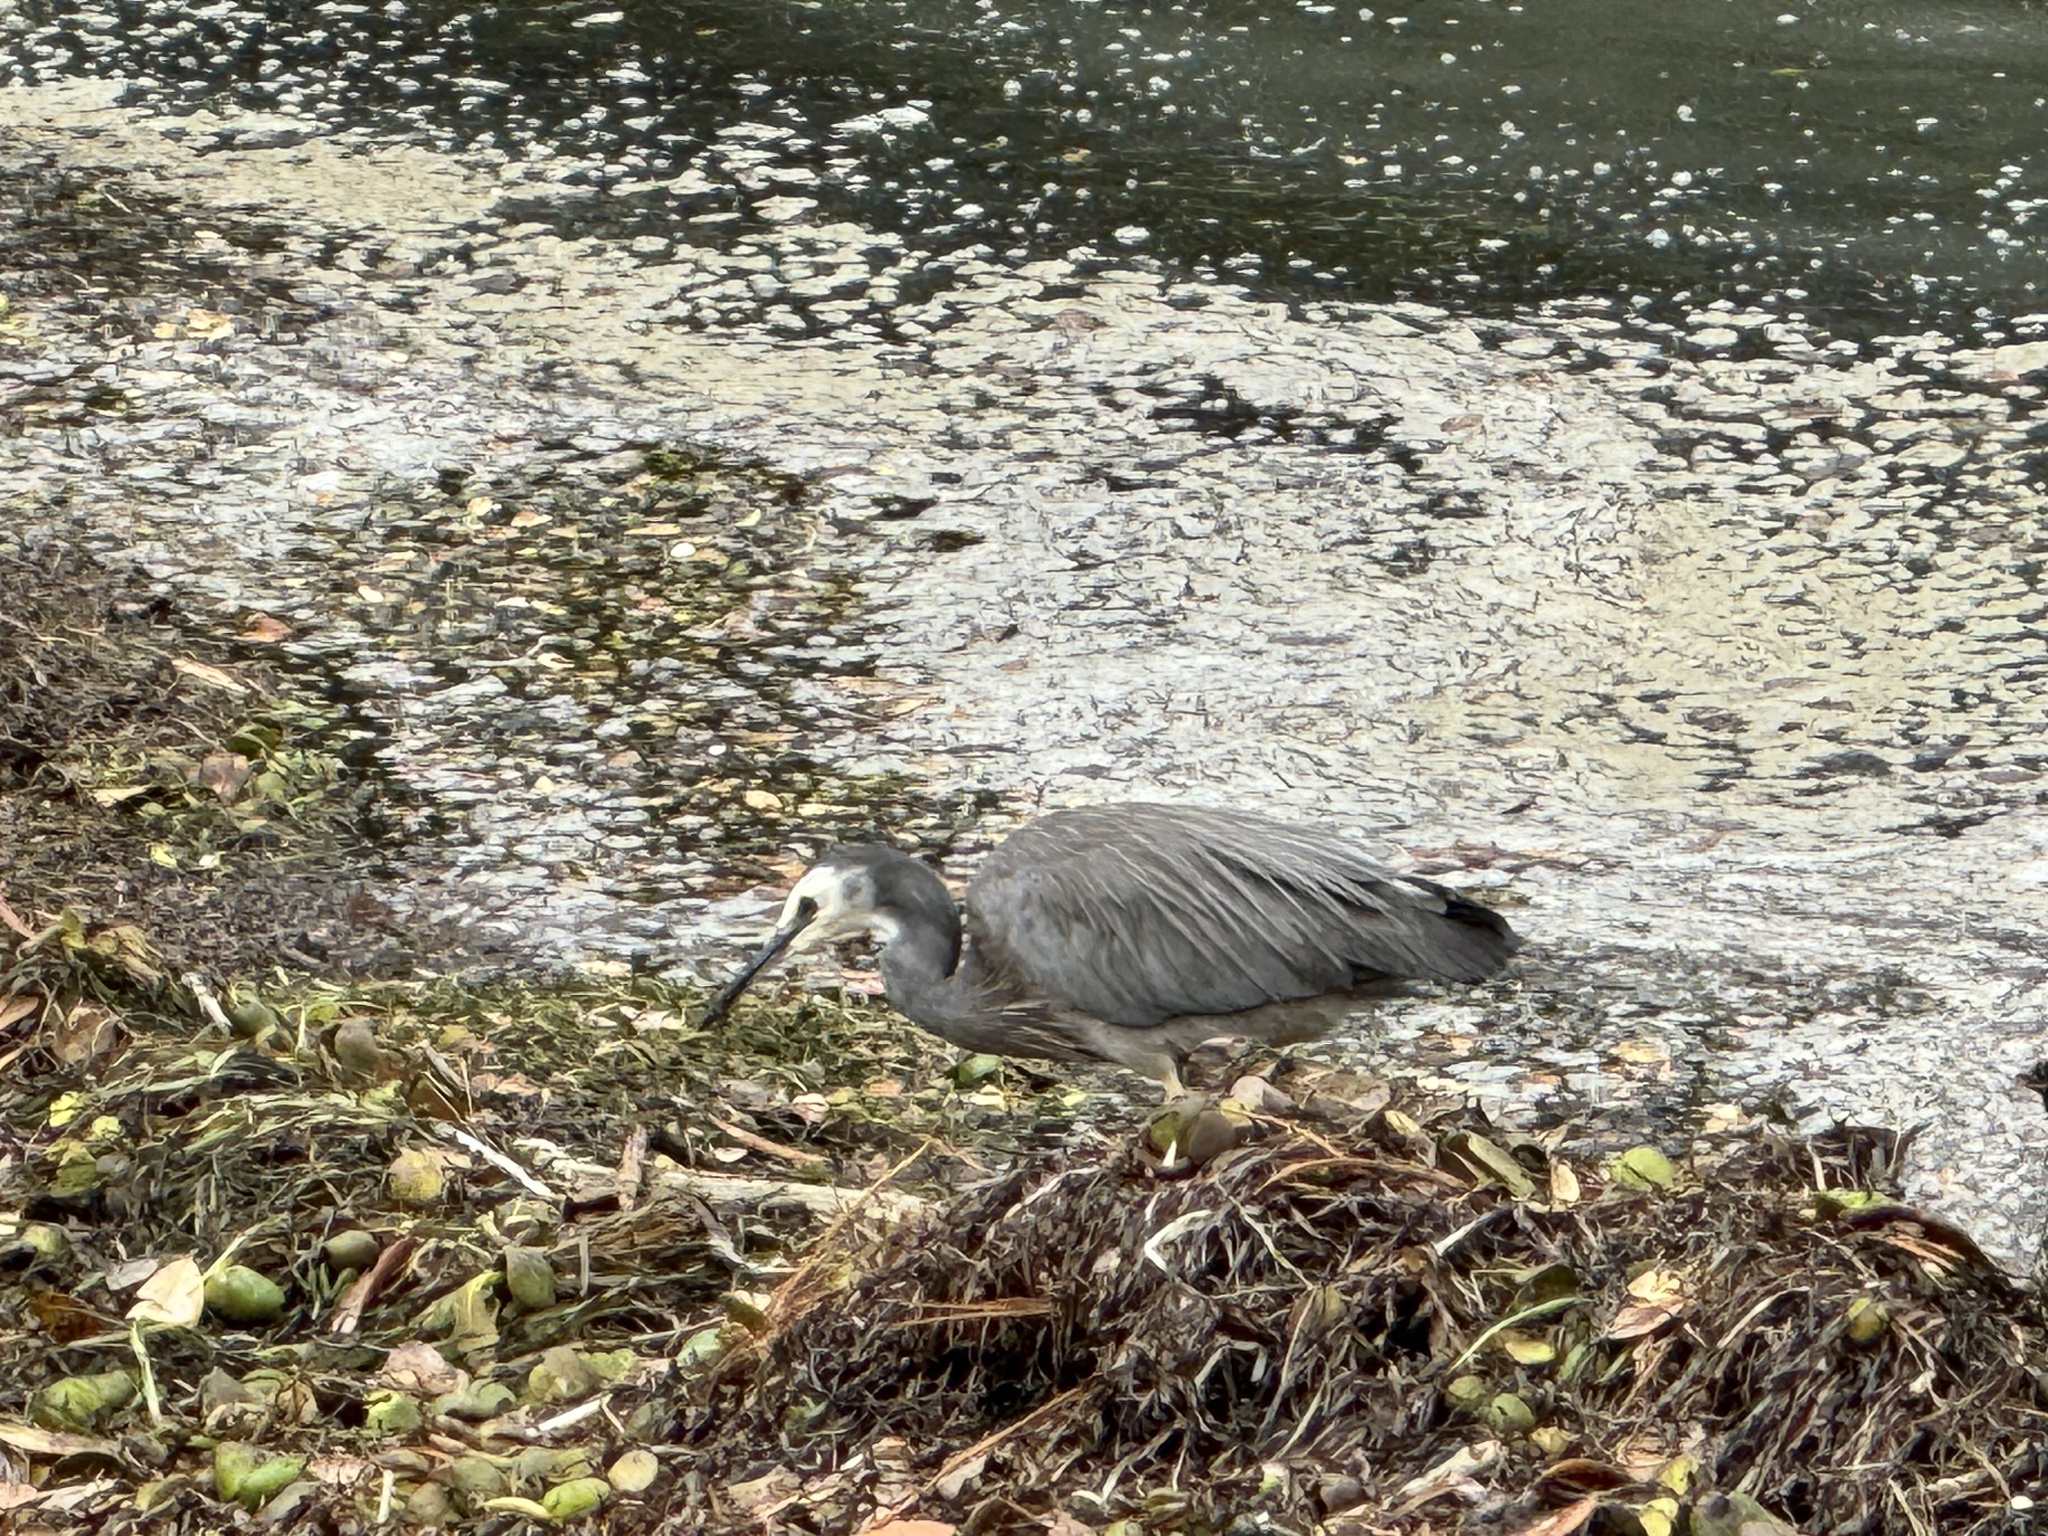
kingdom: Animalia
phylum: Chordata
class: Aves
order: Pelecaniformes
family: Ardeidae
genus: Egretta
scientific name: Egretta novaehollandiae
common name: White-faced heron
